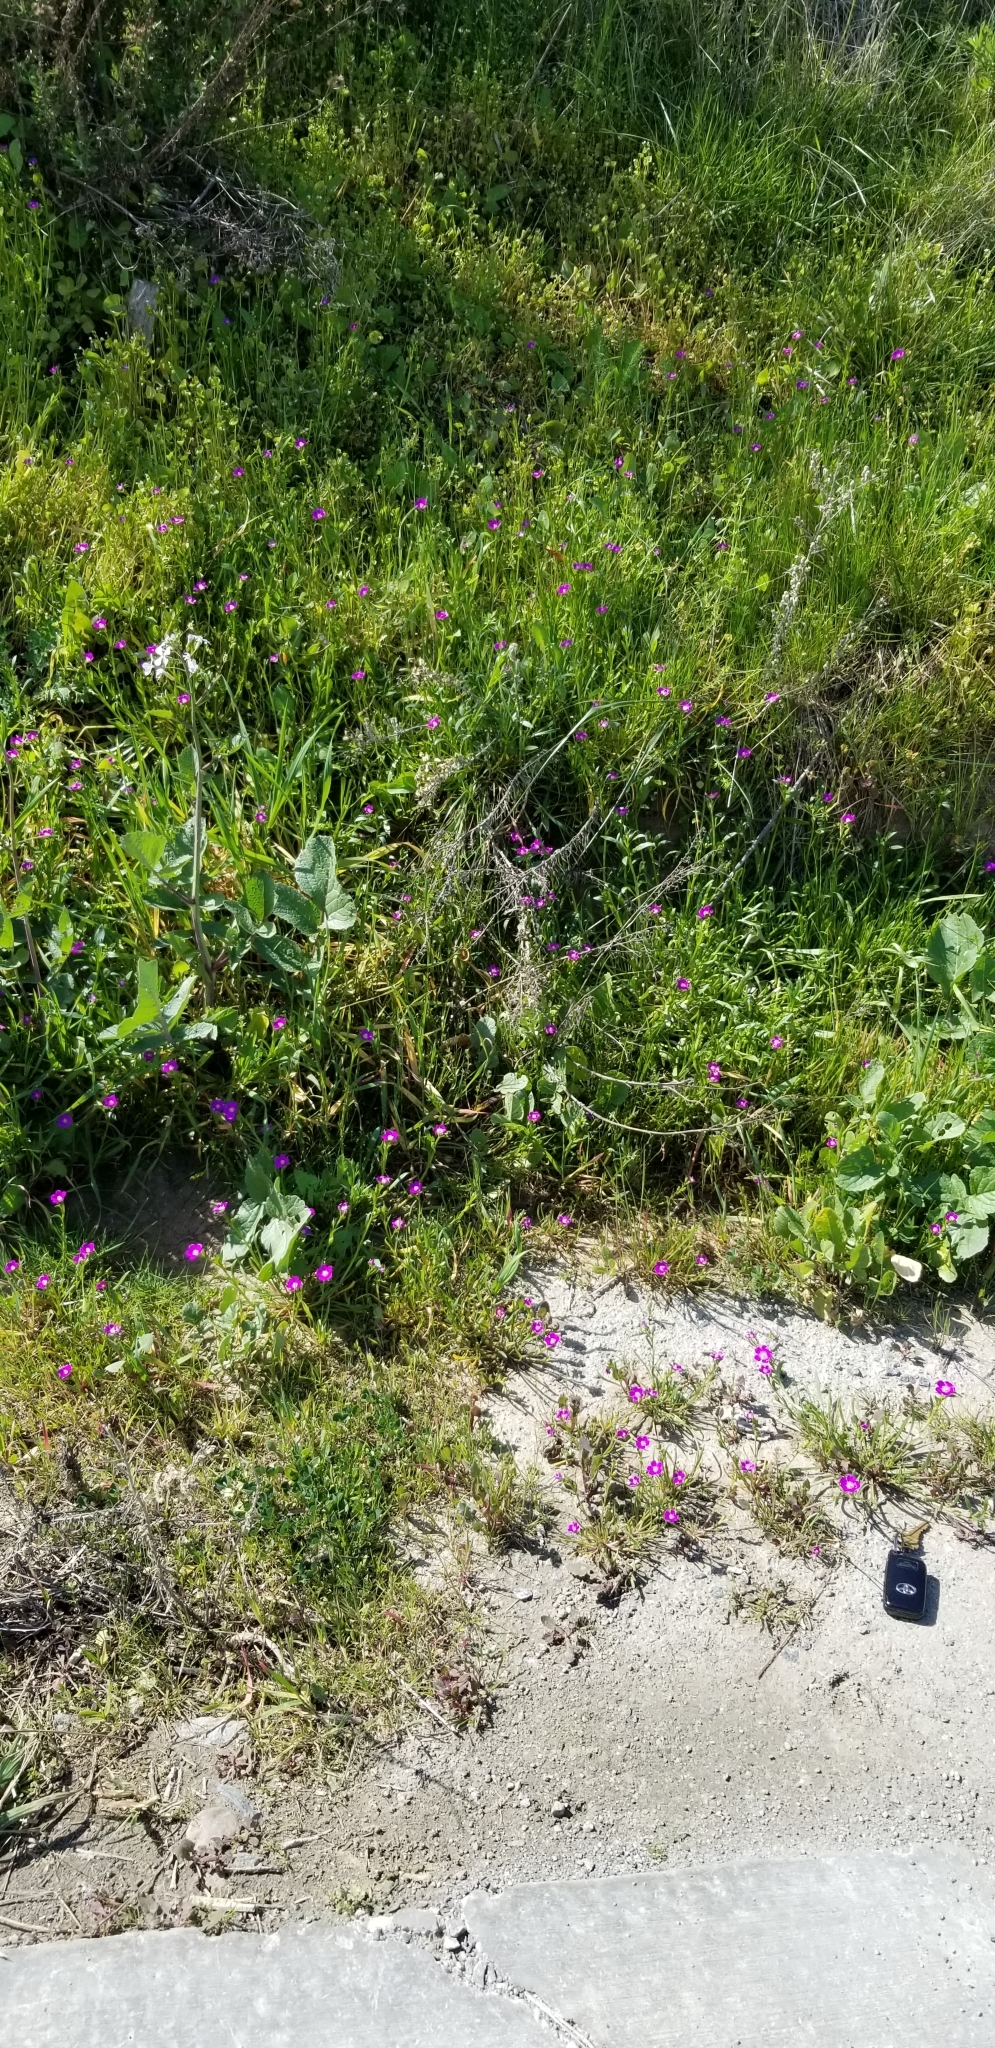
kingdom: Plantae
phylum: Tracheophyta
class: Magnoliopsida
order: Caryophyllales
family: Montiaceae
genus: Calandrinia
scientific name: Calandrinia menziesii
